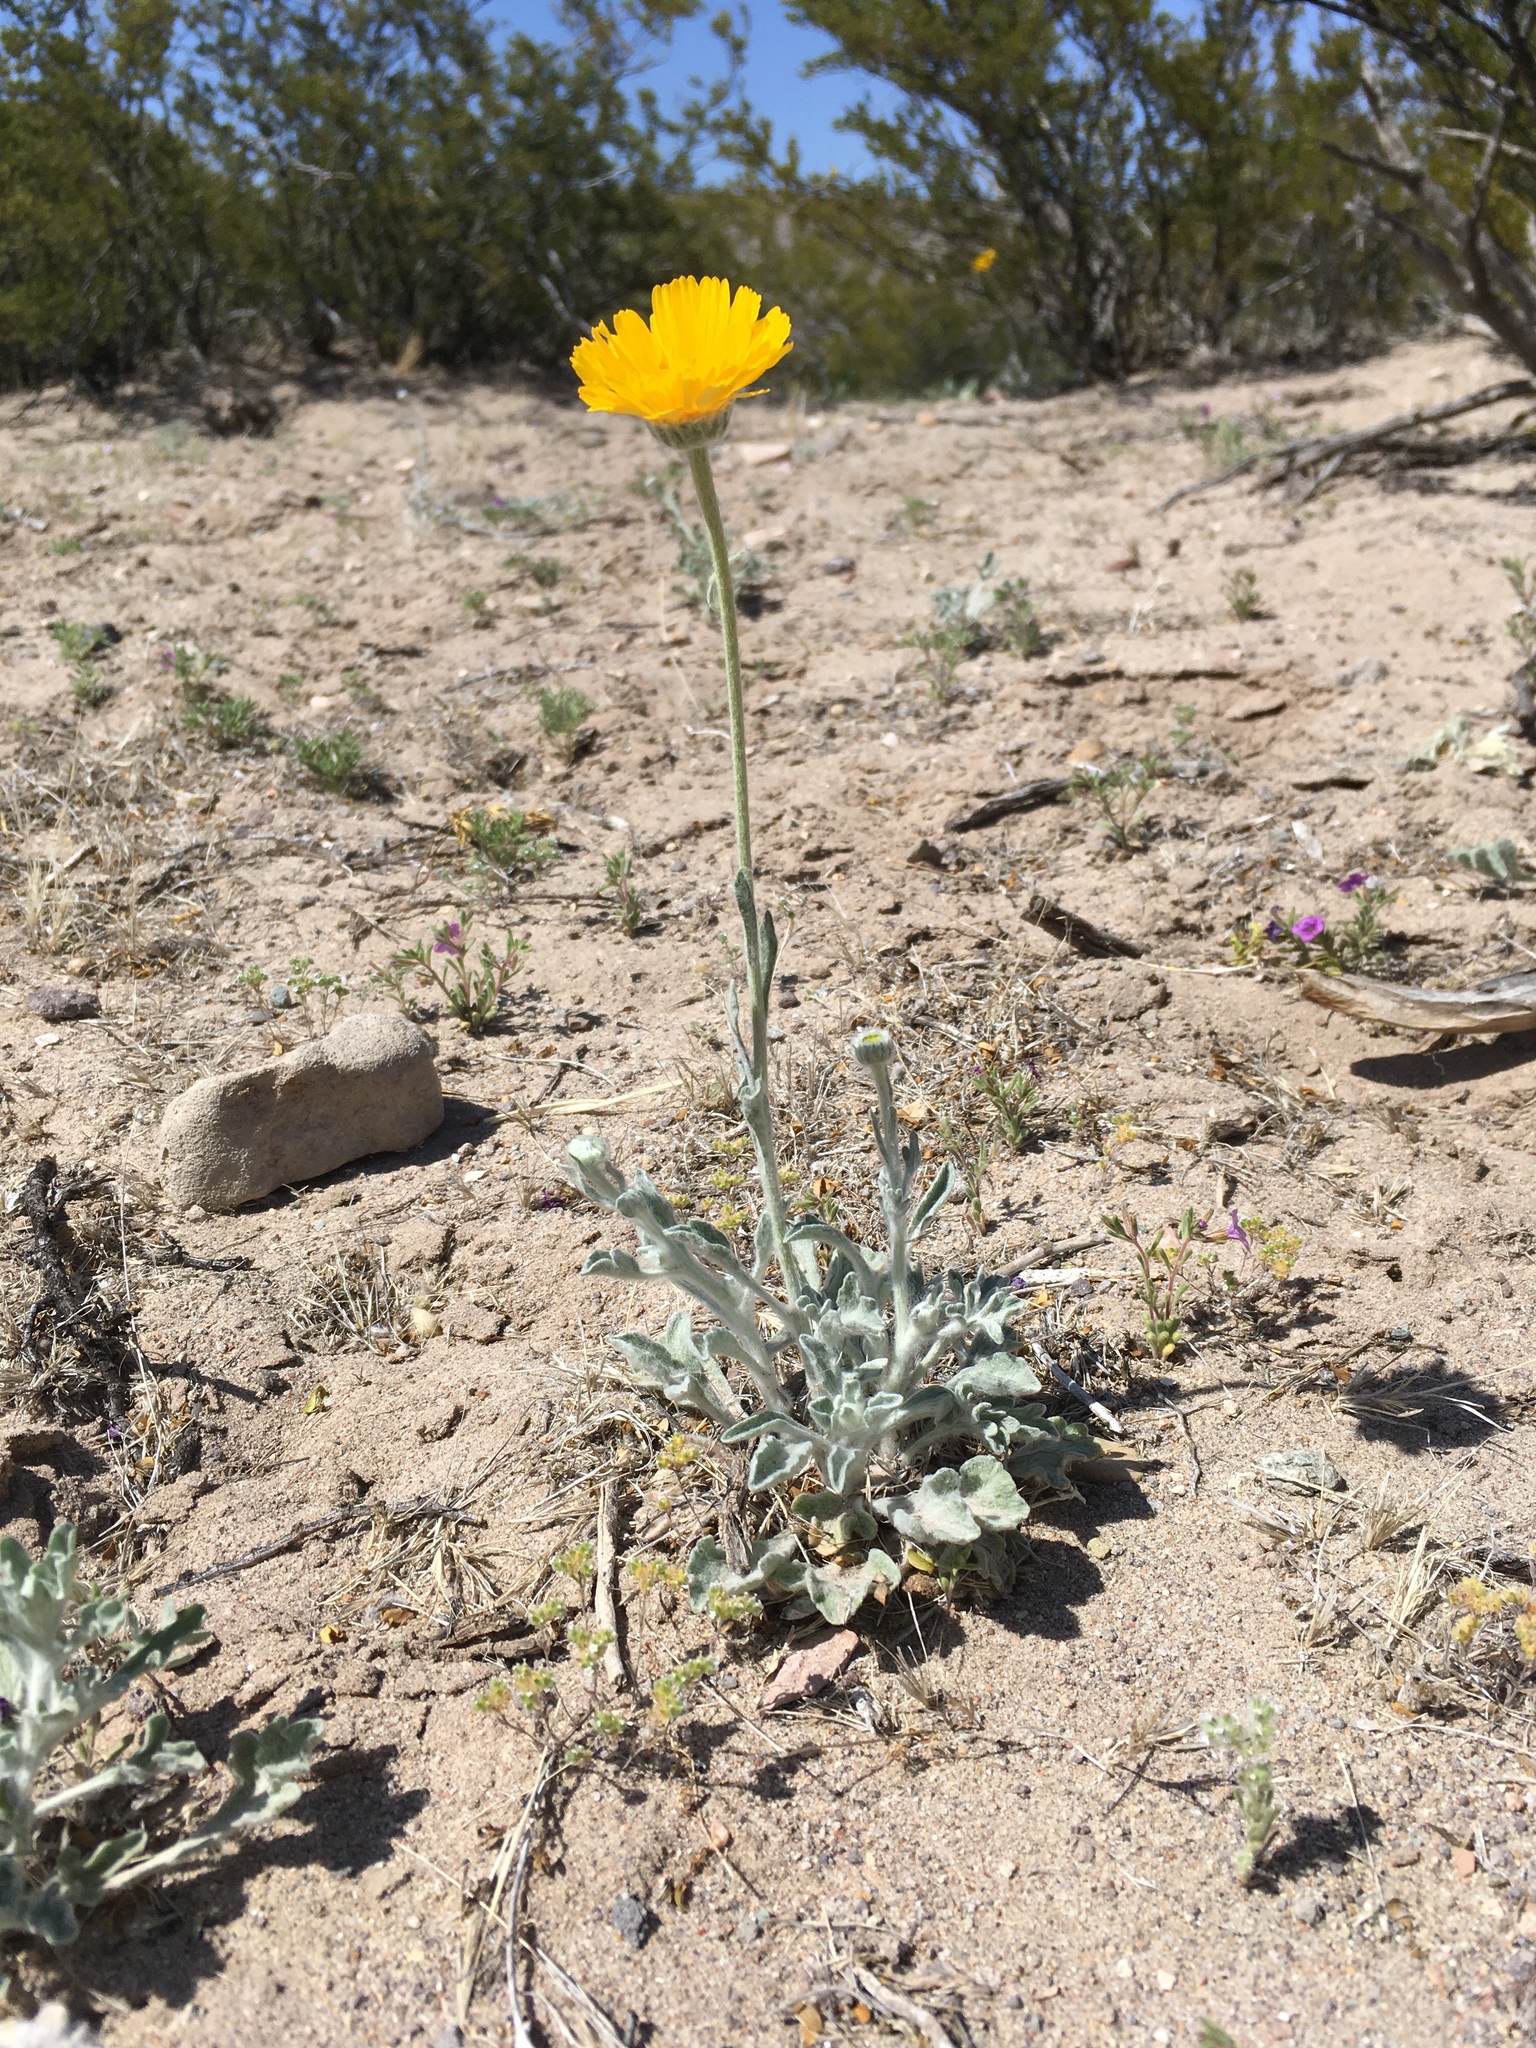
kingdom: Plantae
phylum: Tracheophyta
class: Magnoliopsida
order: Asterales
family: Asteraceae
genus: Baileya
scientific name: Baileya multiradiata
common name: Desert-marigold
